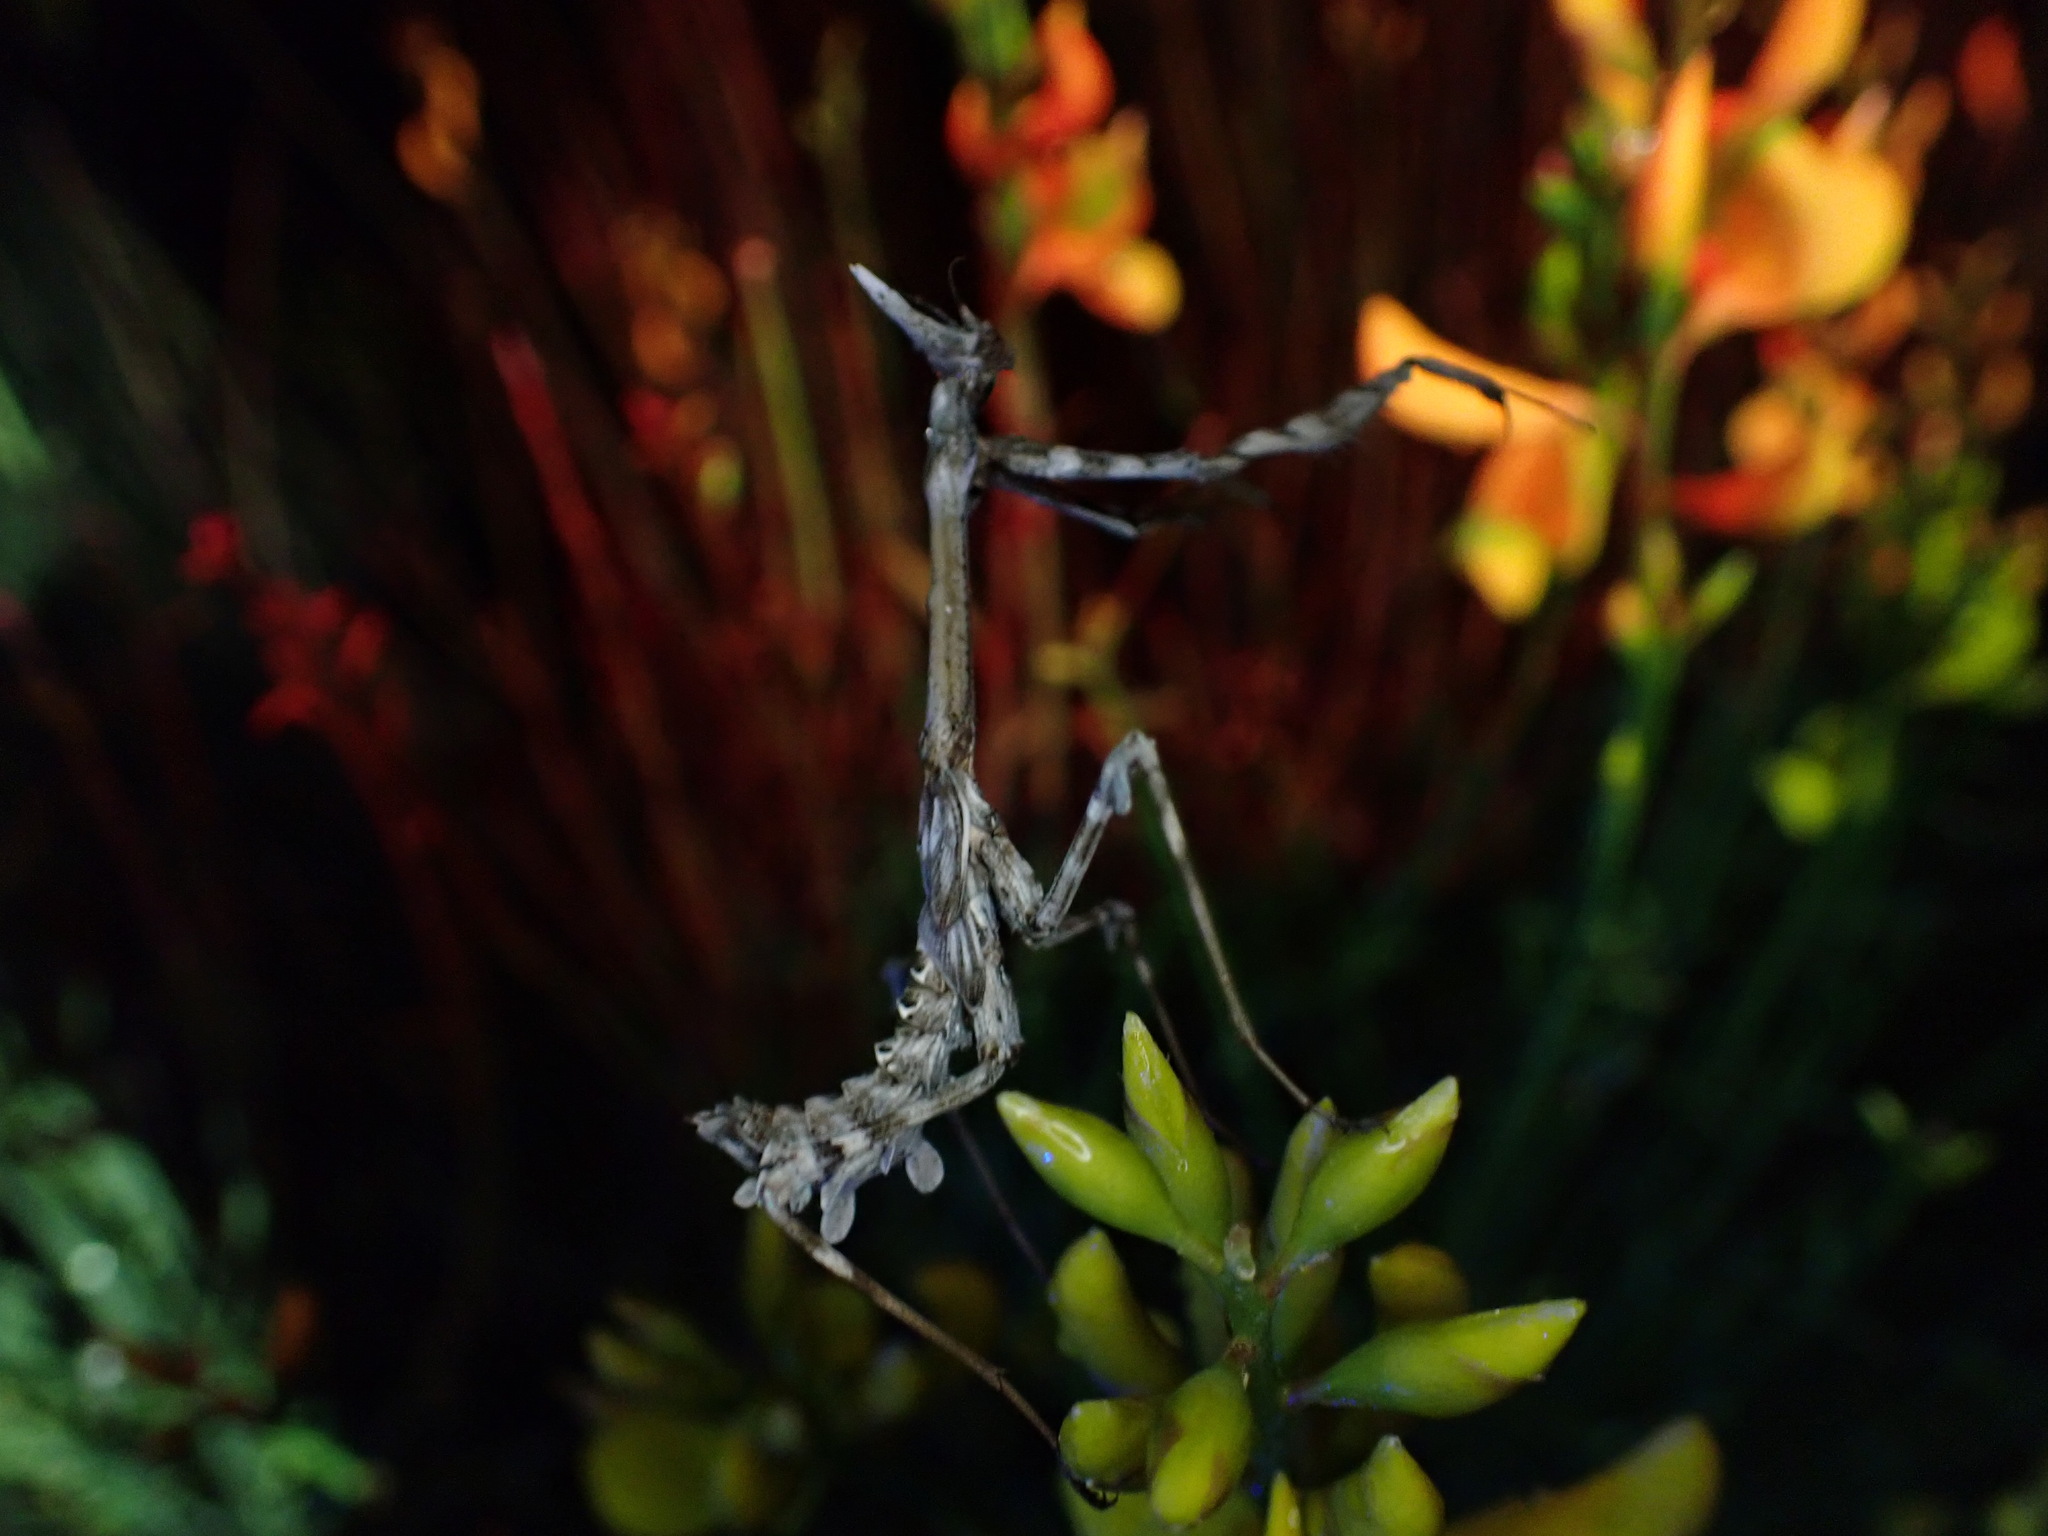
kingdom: Animalia
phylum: Arthropoda
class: Insecta
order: Mantodea
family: Empusidae
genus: Empusa
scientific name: Empusa pennata
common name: Conehead mantis
